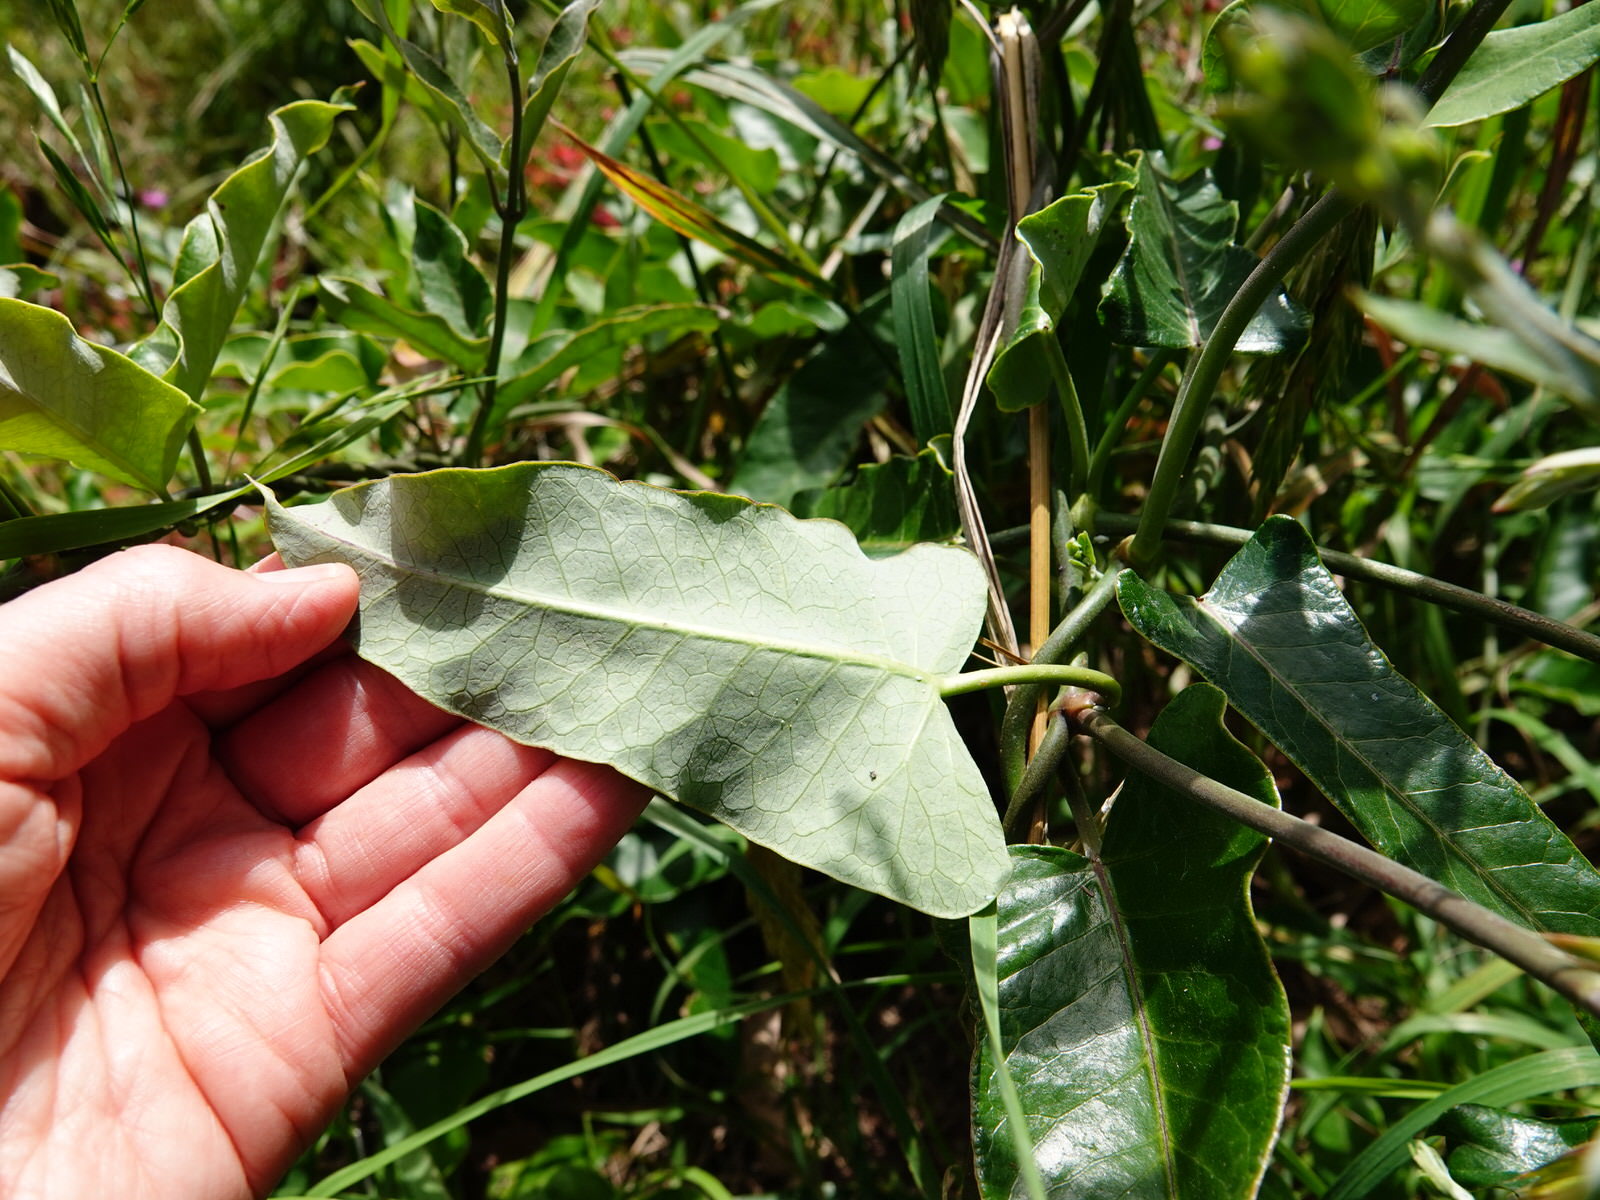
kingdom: Plantae
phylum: Tracheophyta
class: Magnoliopsida
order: Gentianales
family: Apocynaceae
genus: Araujia
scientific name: Araujia sericifera
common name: White bladderflower
